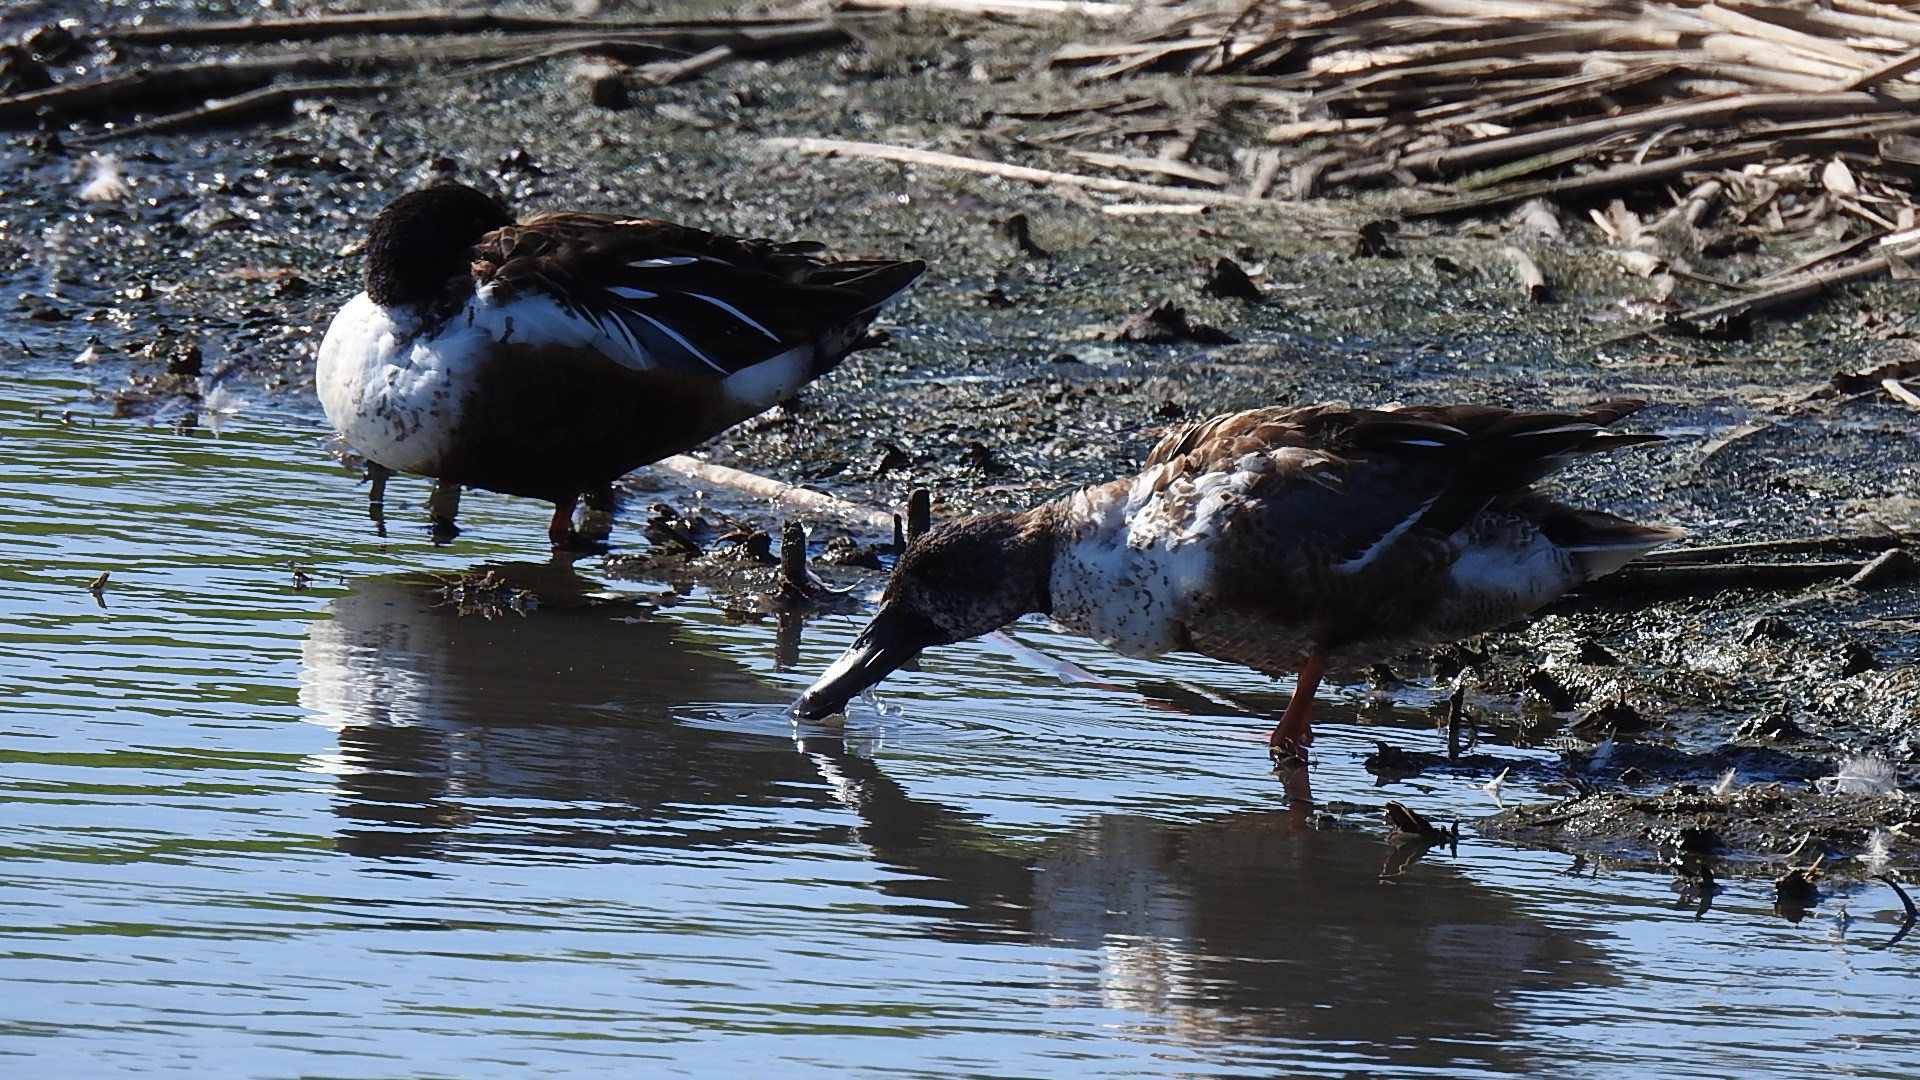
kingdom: Animalia
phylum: Chordata
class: Aves
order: Anseriformes
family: Anatidae
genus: Spatula
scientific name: Spatula clypeata
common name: Northern shoveler
